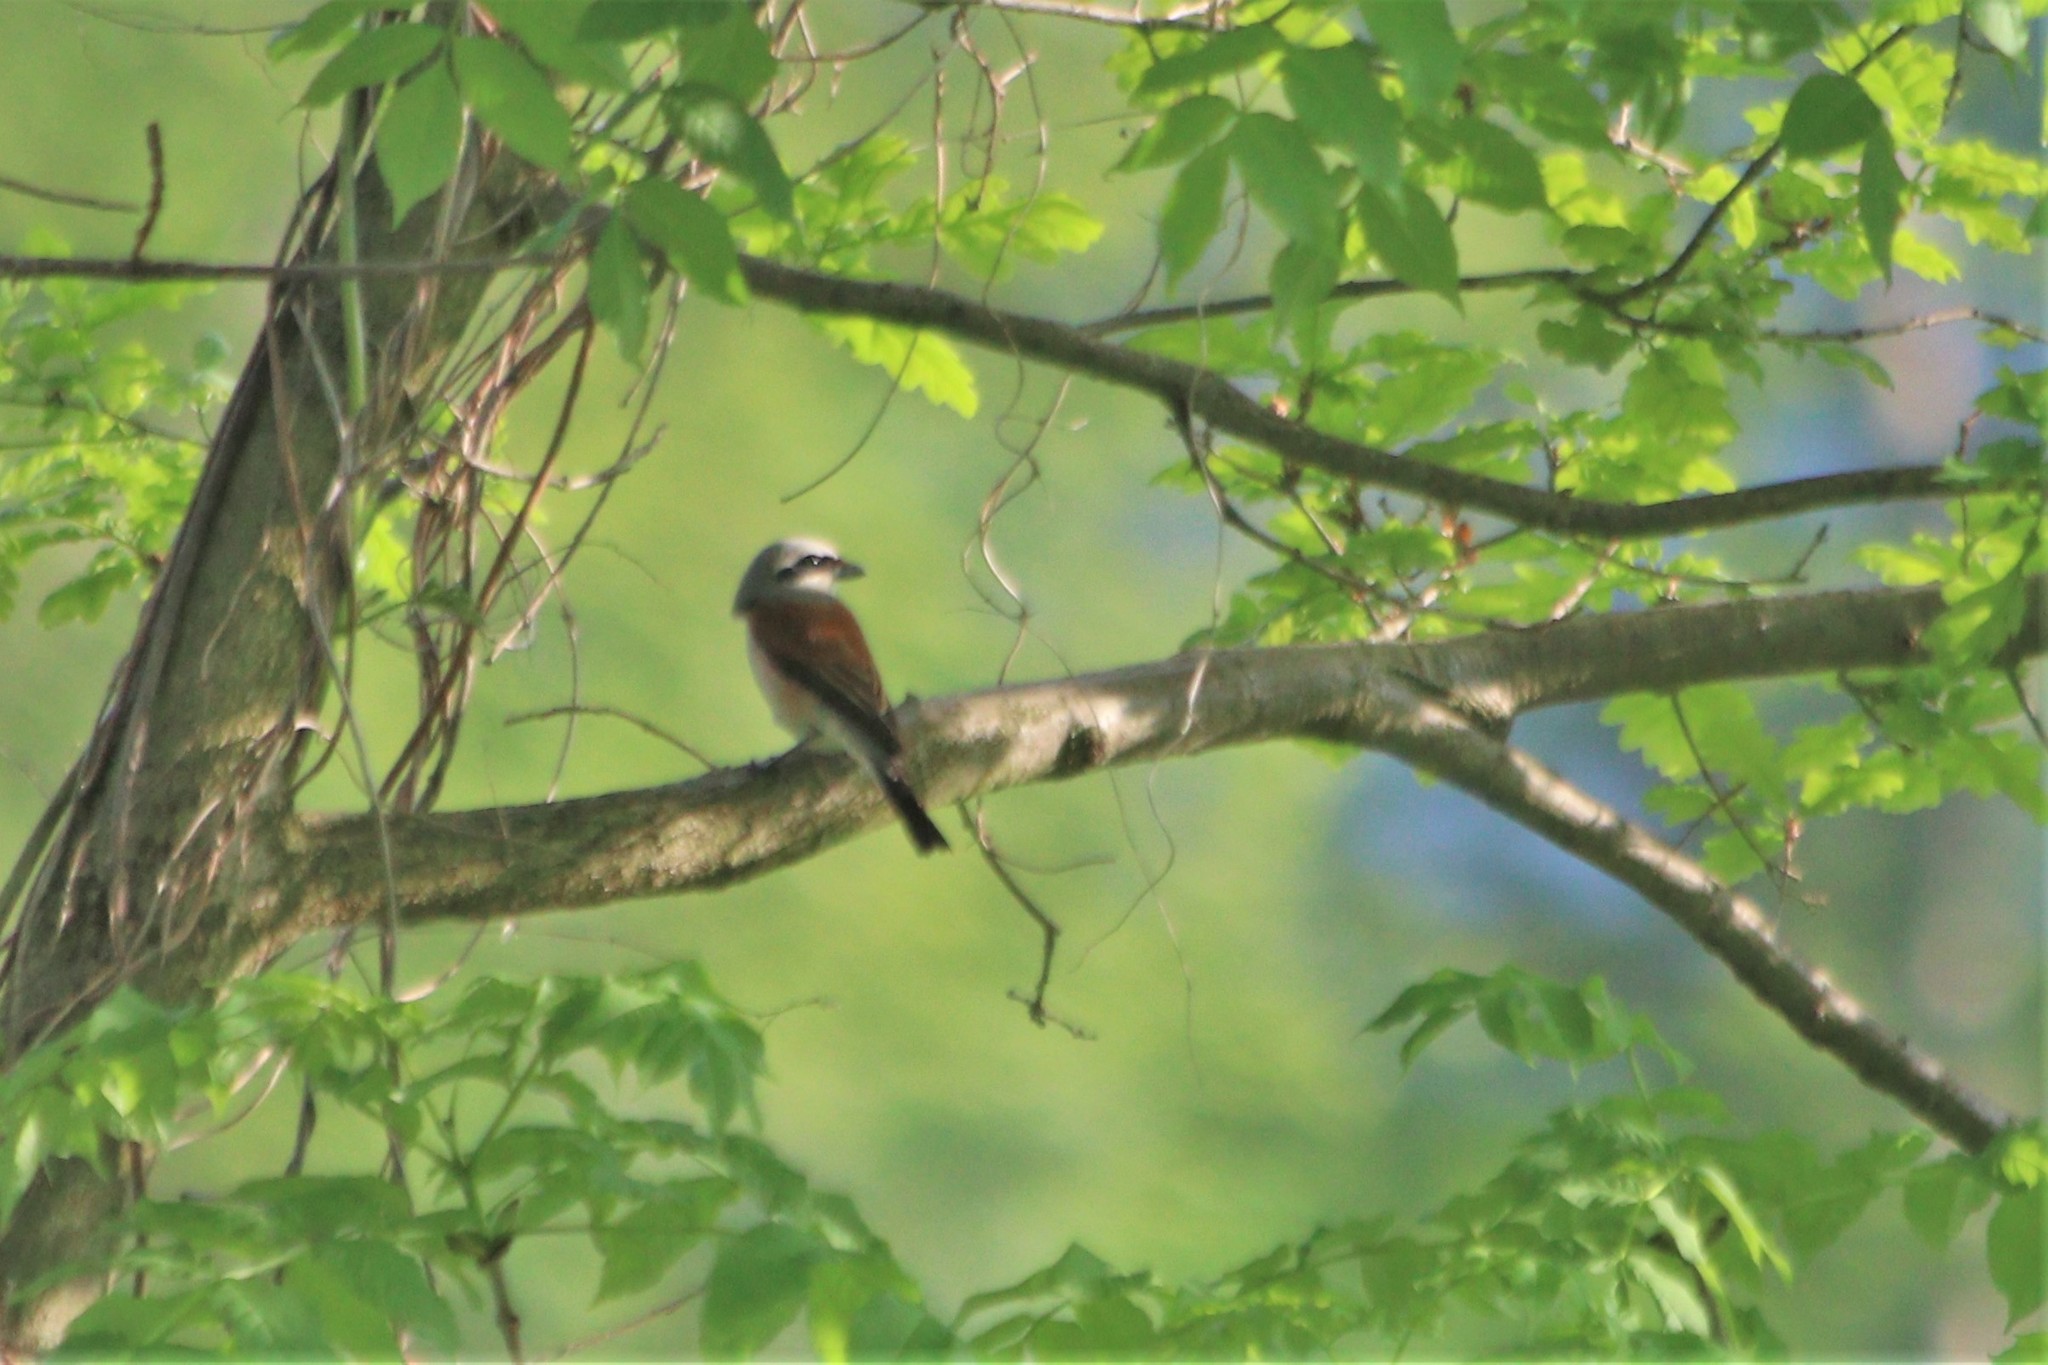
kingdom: Animalia
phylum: Chordata
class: Aves
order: Passeriformes
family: Laniidae
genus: Lanius
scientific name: Lanius collurio
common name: Red-backed shrike
